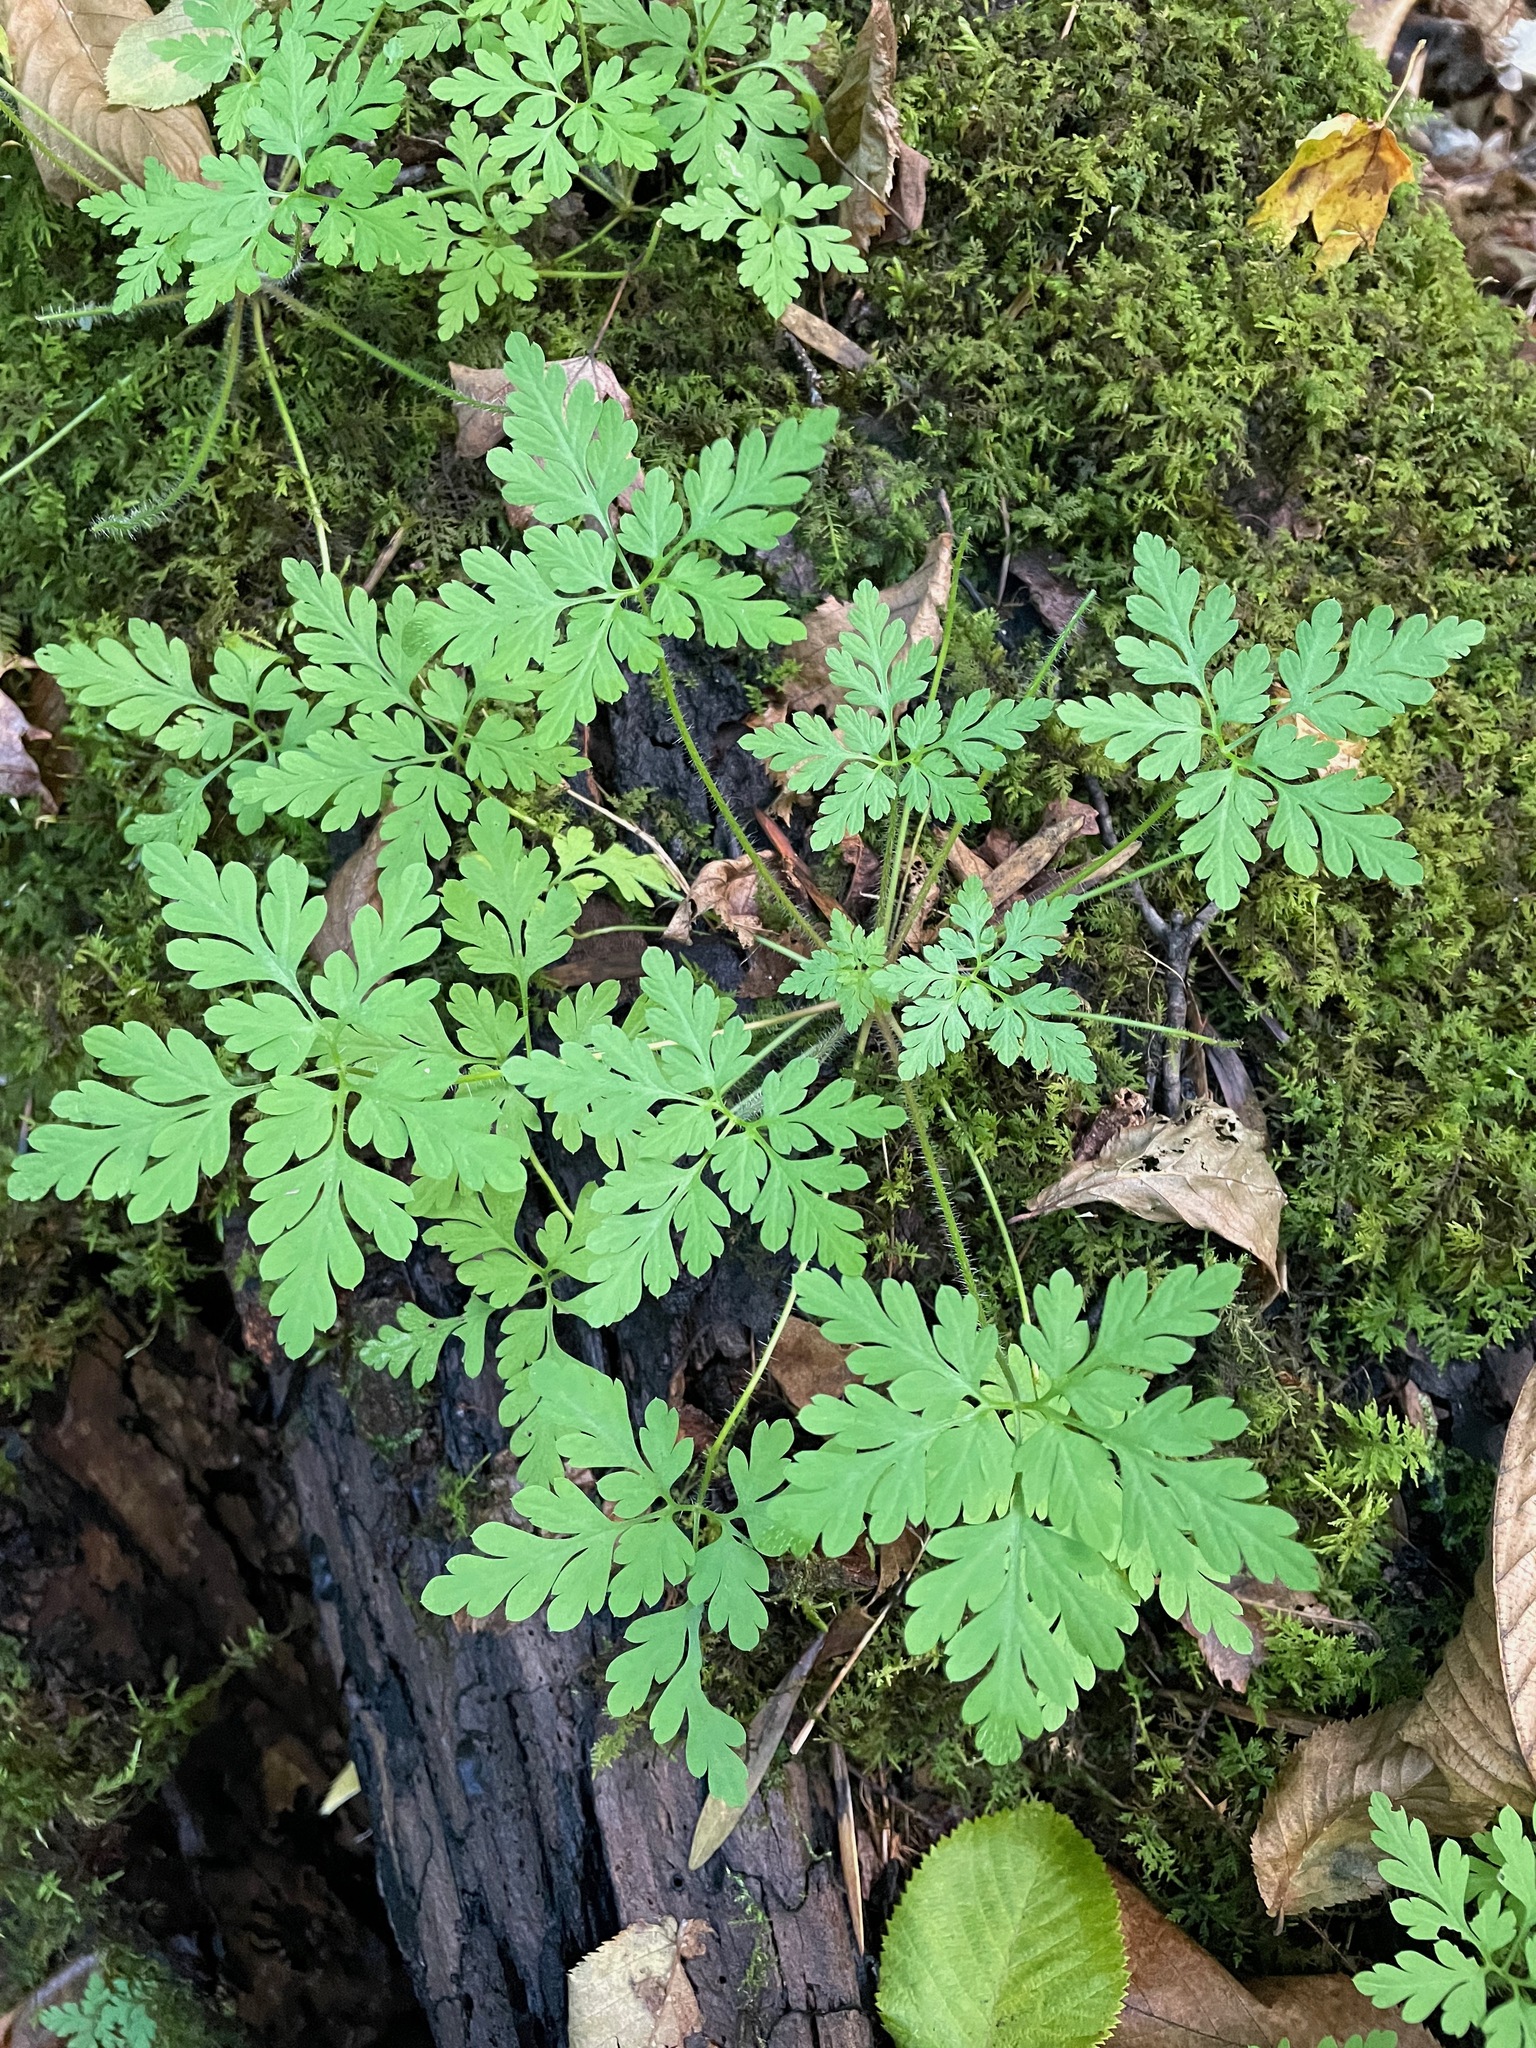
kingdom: Plantae
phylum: Tracheophyta
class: Magnoliopsida
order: Geraniales
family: Geraniaceae
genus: Geranium
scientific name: Geranium robertianum
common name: Herb-robert
